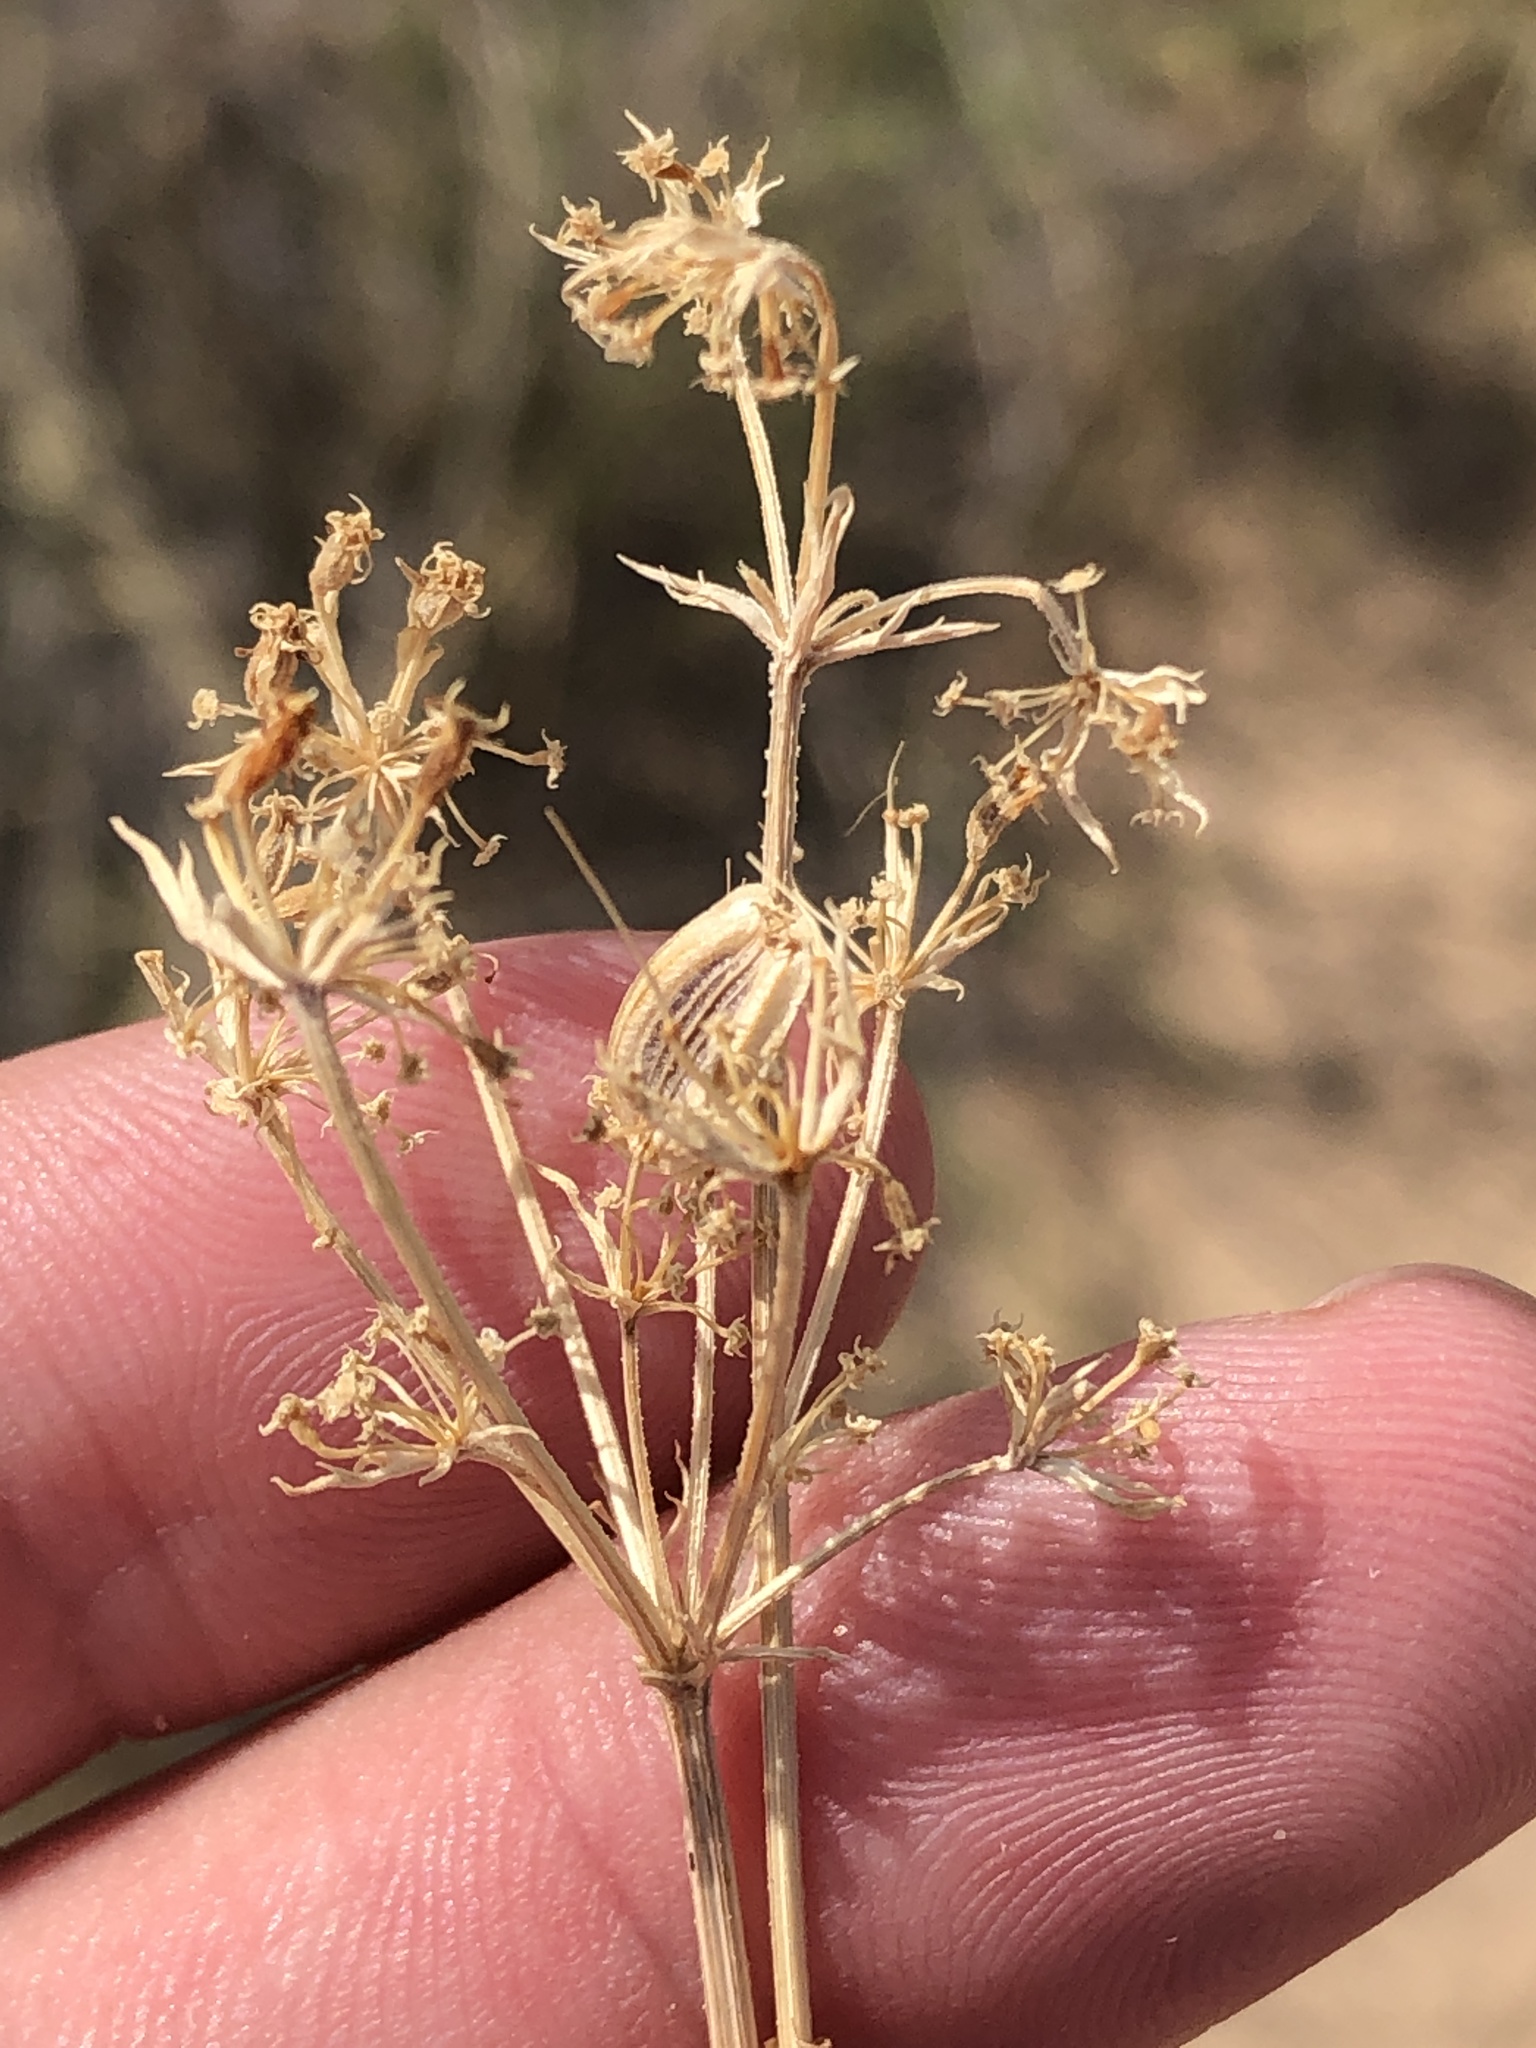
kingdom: Plantae
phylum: Tracheophyta
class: Magnoliopsida
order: Apiales
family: Apiaceae
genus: Eurytaenia
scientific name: Eurytaenia hinckleyi
